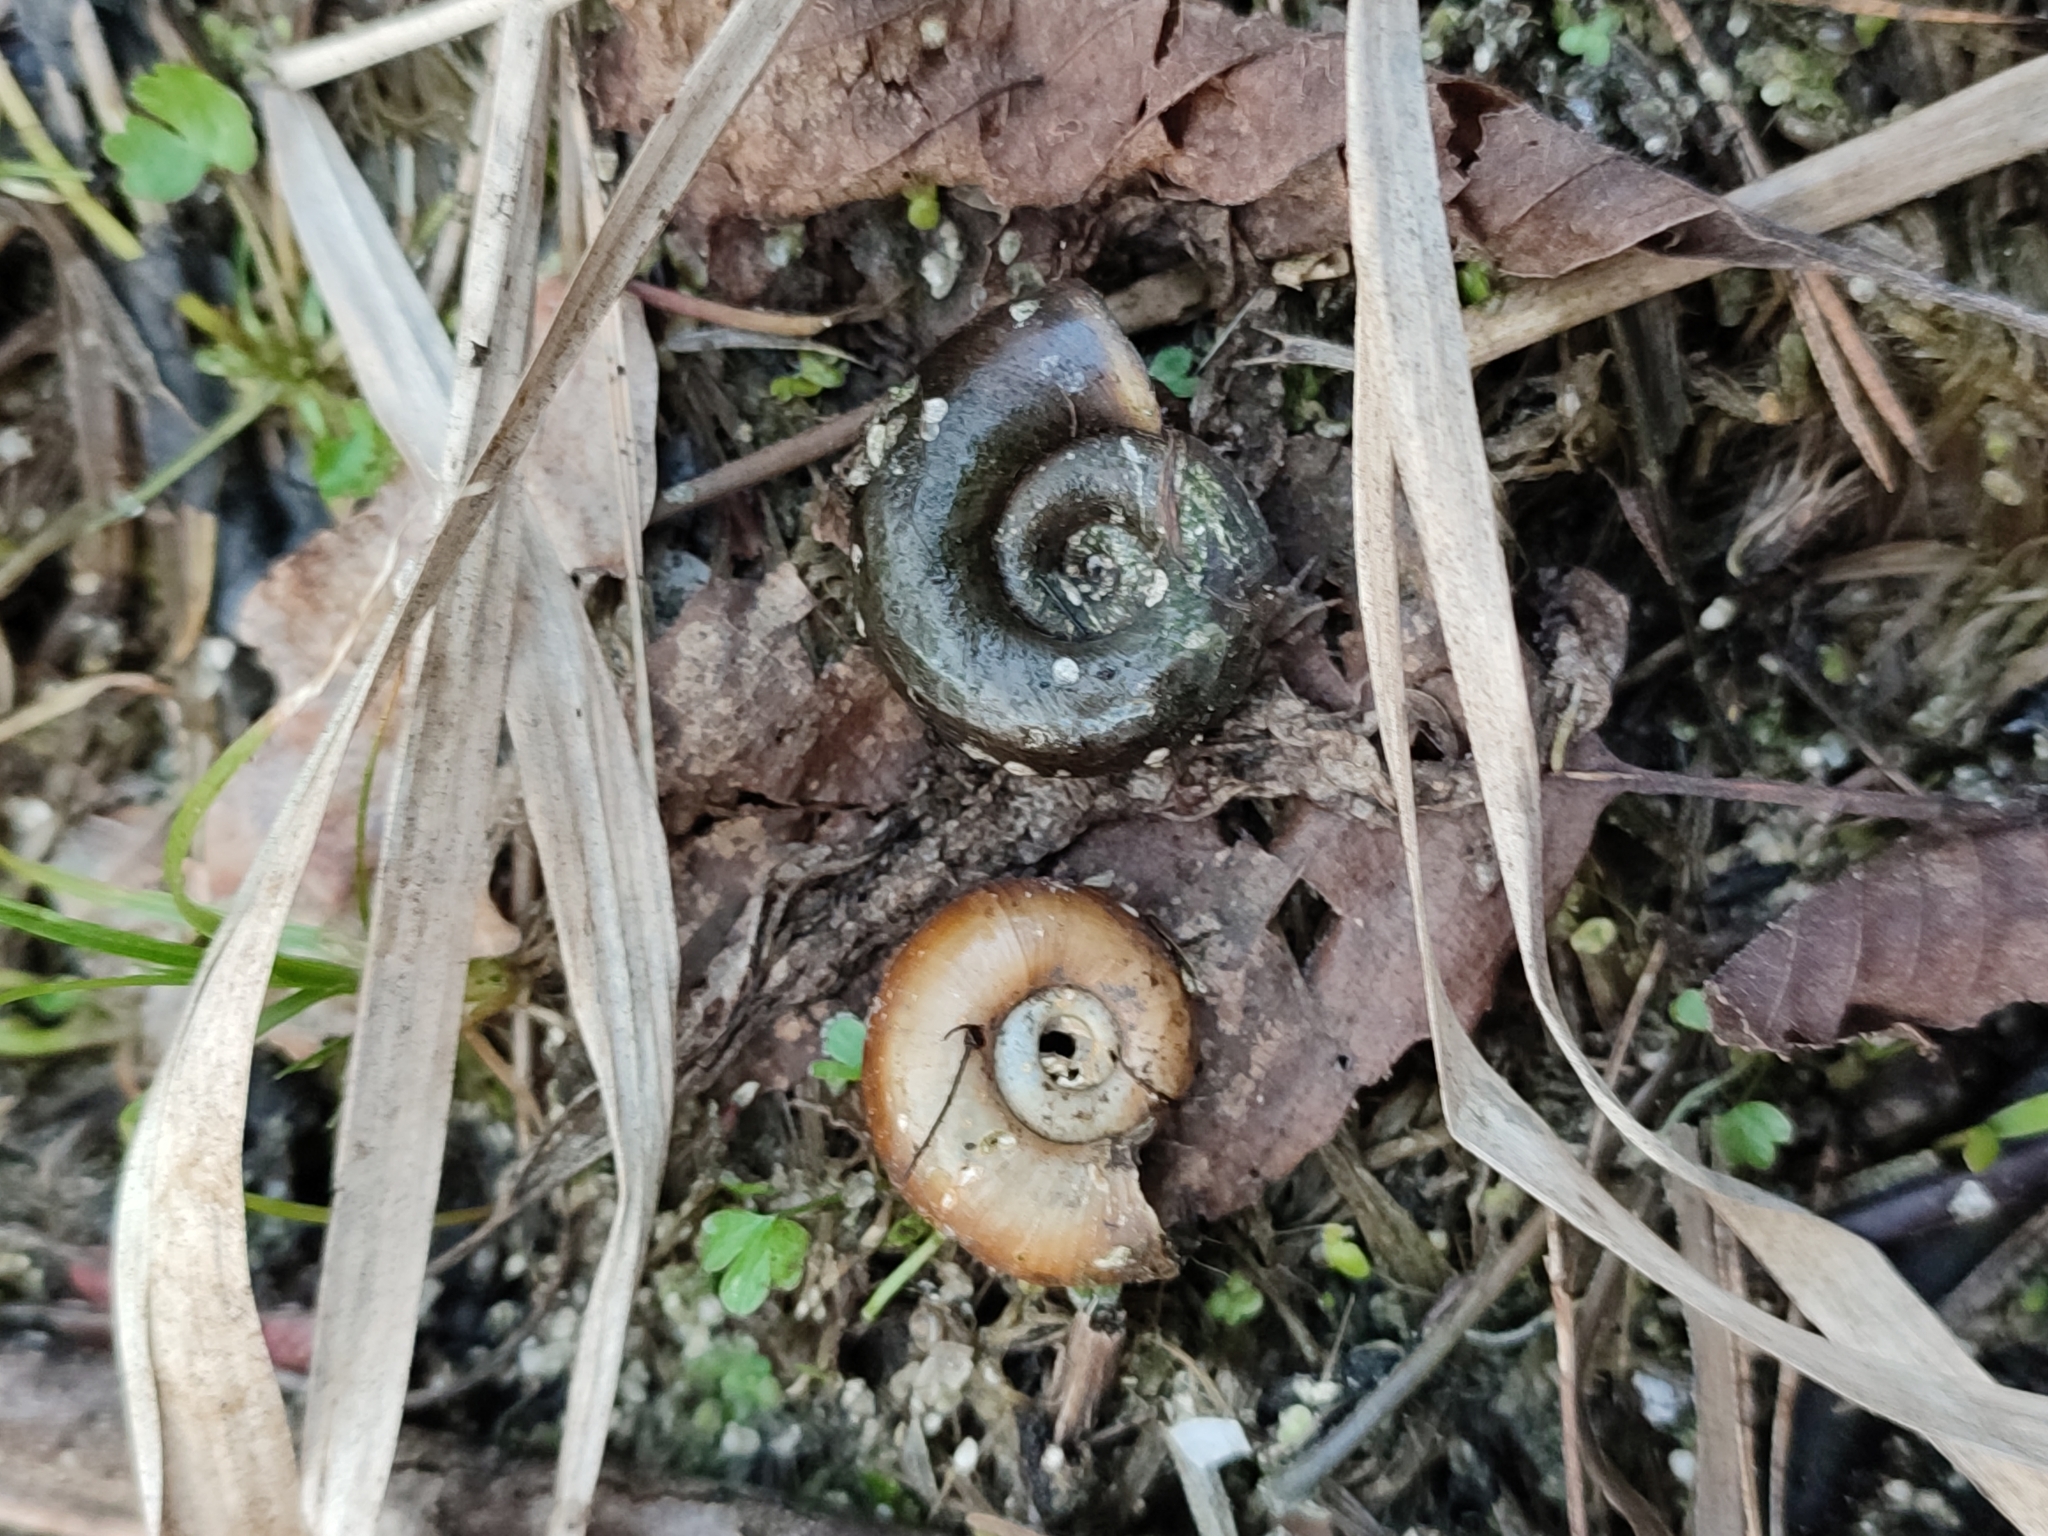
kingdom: Animalia
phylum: Mollusca
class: Gastropoda
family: Planorbidae
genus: Planorbarius
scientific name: Planorbarius corneus
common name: Great ramshorn
